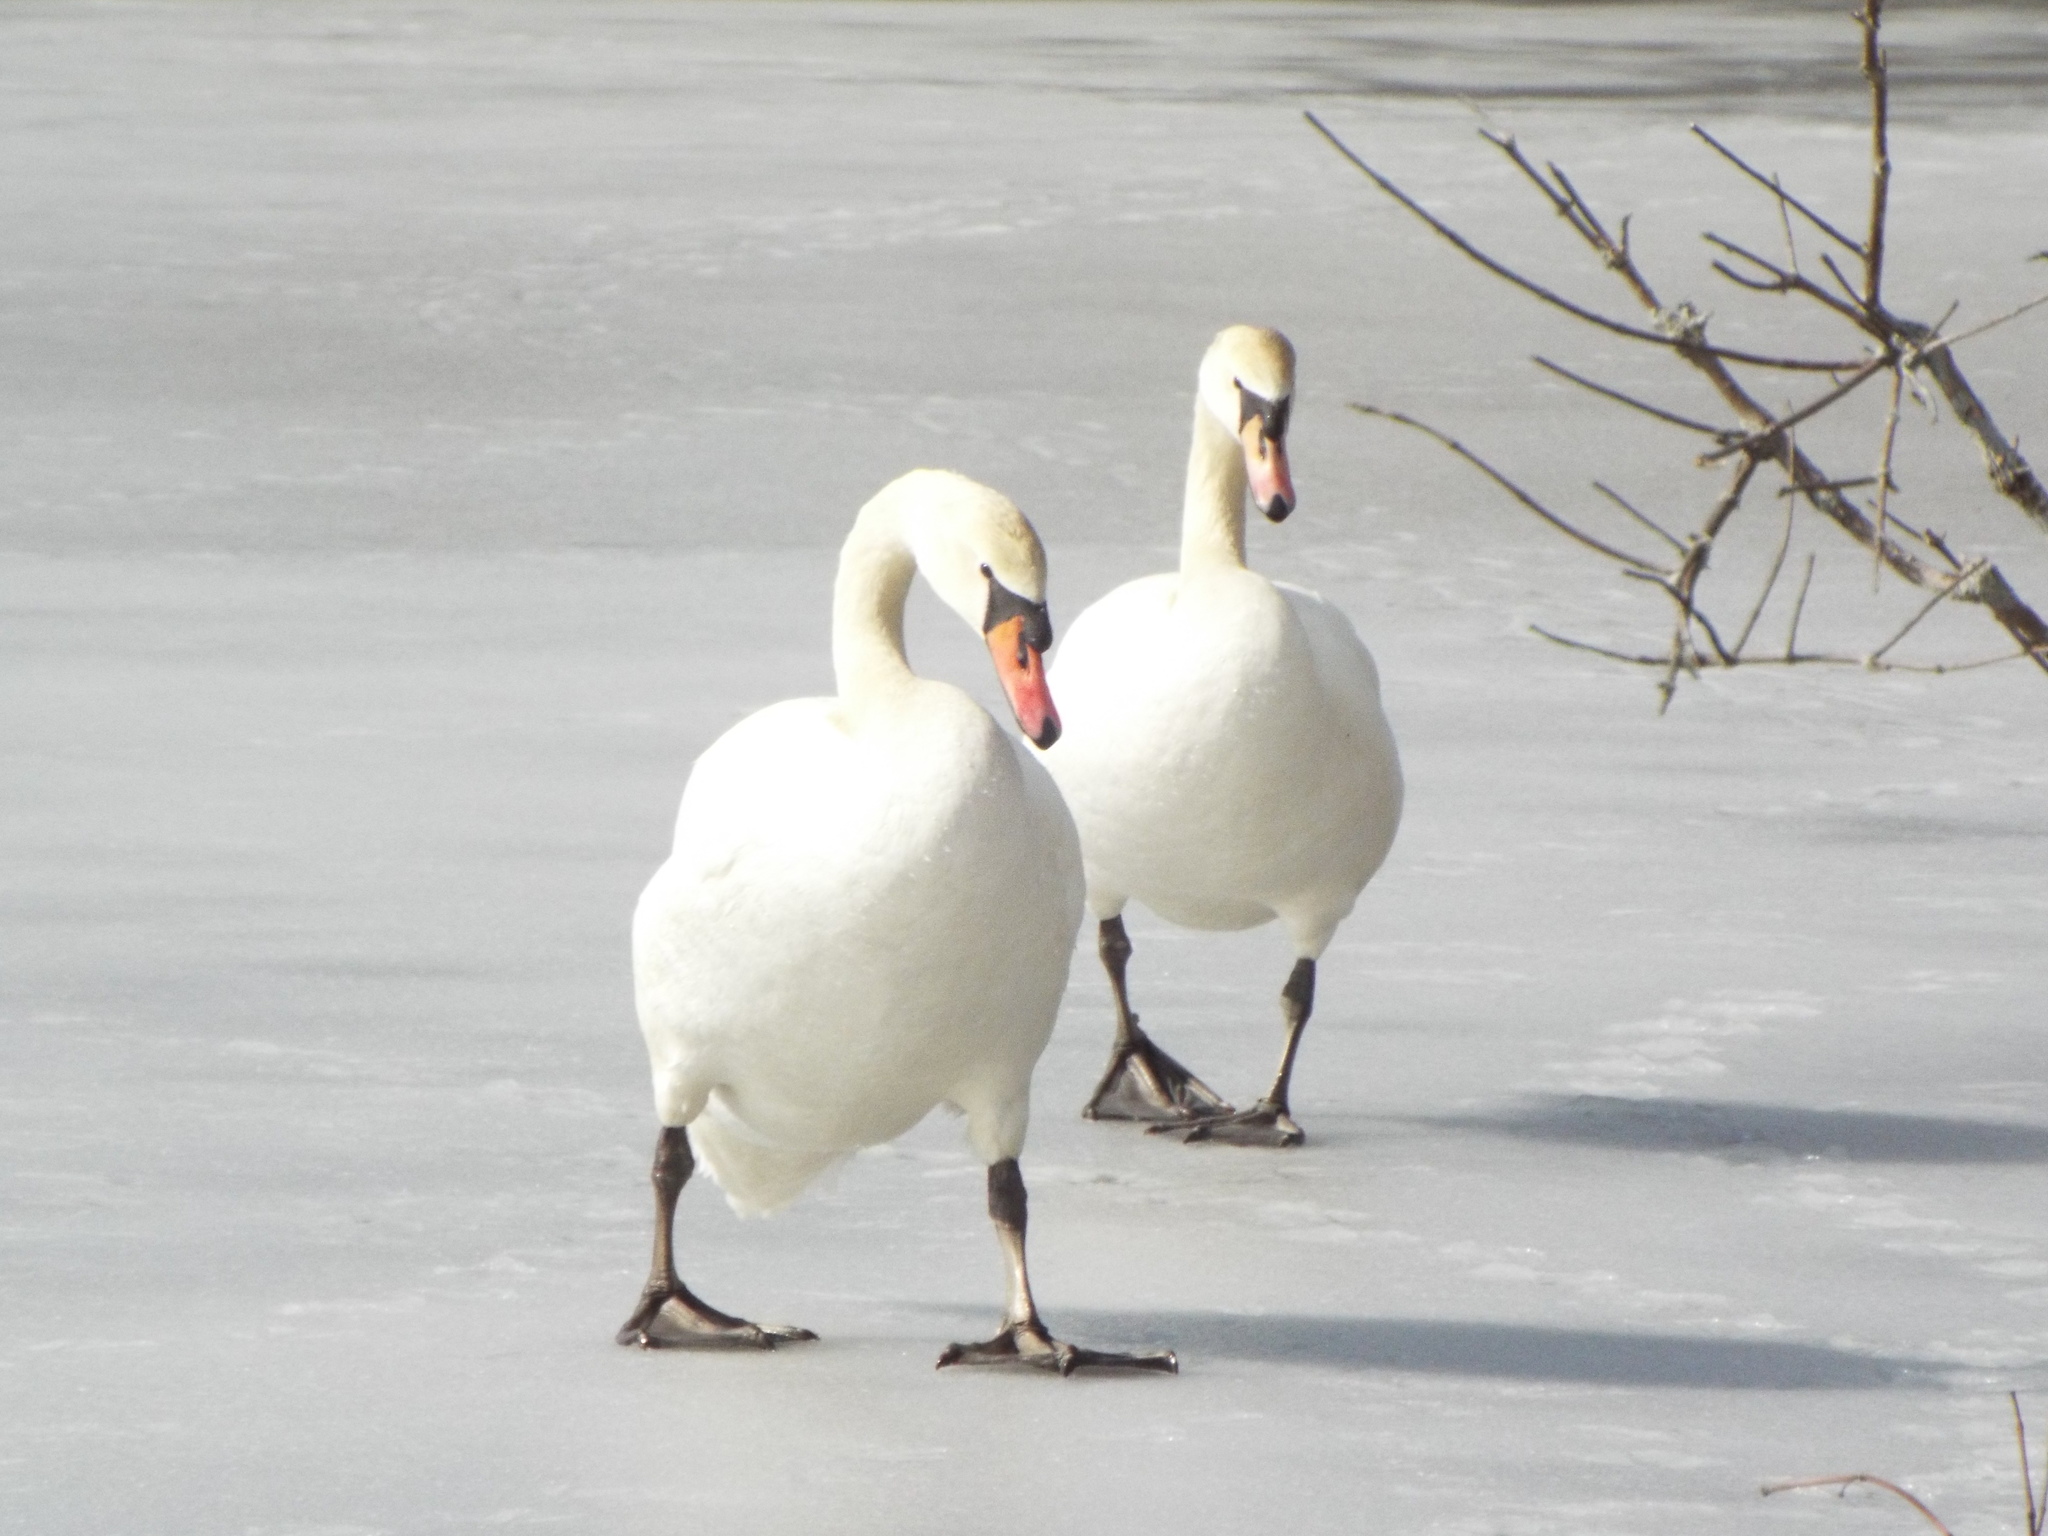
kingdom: Animalia
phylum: Chordata
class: Aves
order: Anseriformes
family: Anatidae
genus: Cygnus
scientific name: Cygnus olor
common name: Mute swan
